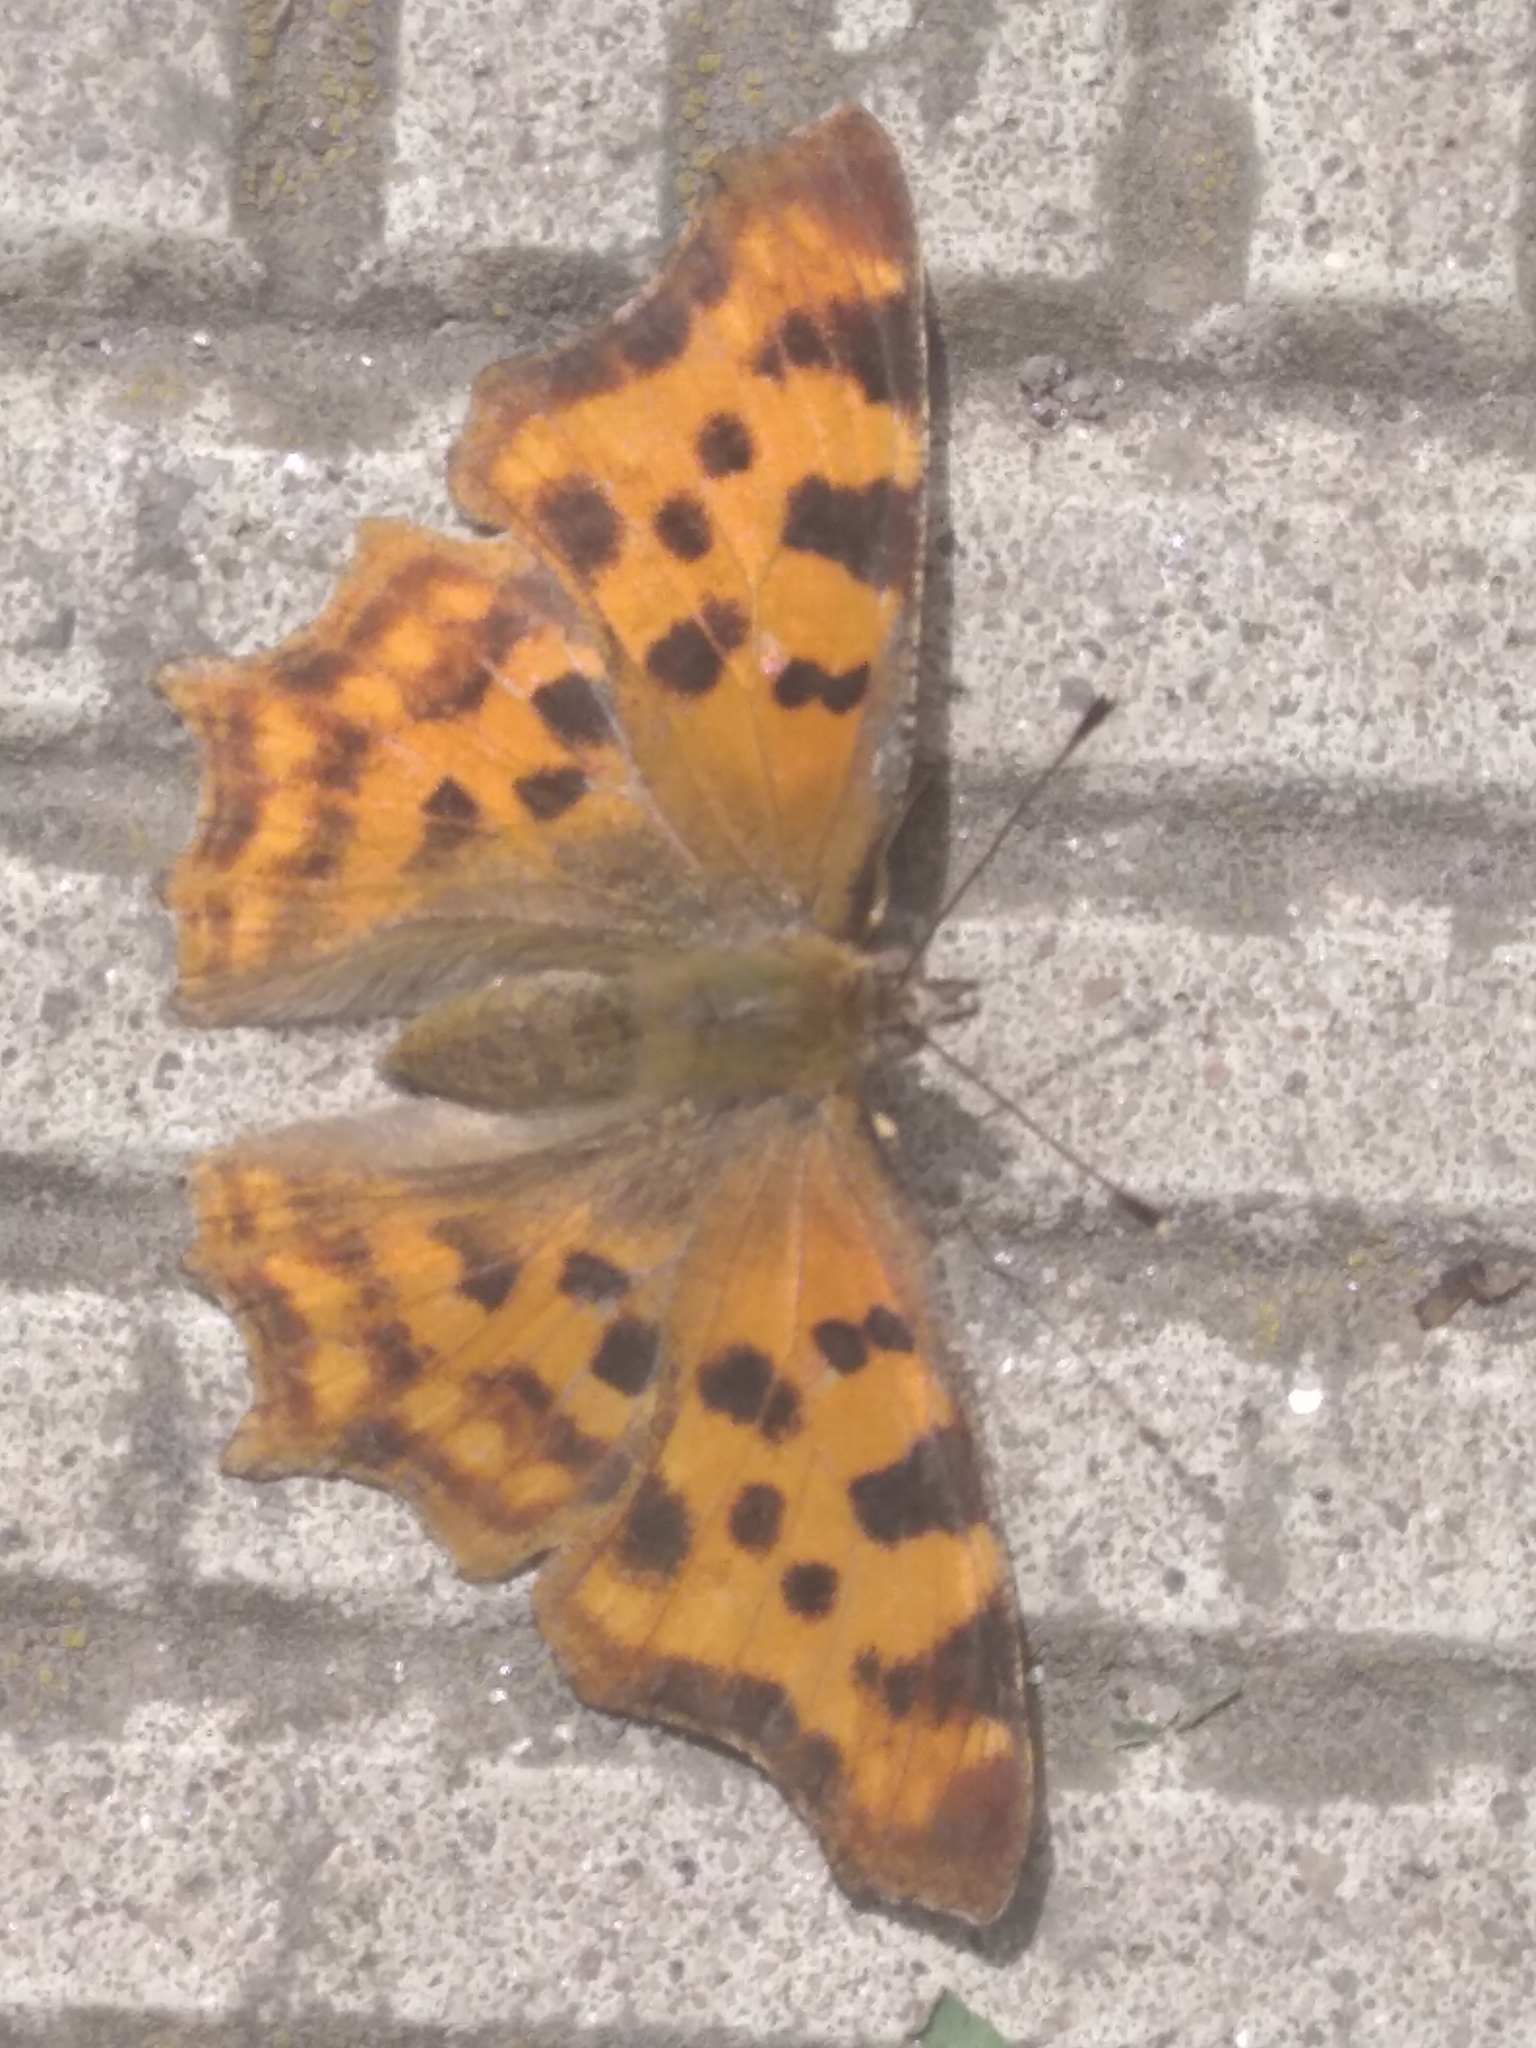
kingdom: Animalia
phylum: Arthropoda
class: Insecta
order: Lepidoptera
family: Nymphalidae
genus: Polygonia
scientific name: Polygonia c-album
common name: Comma
